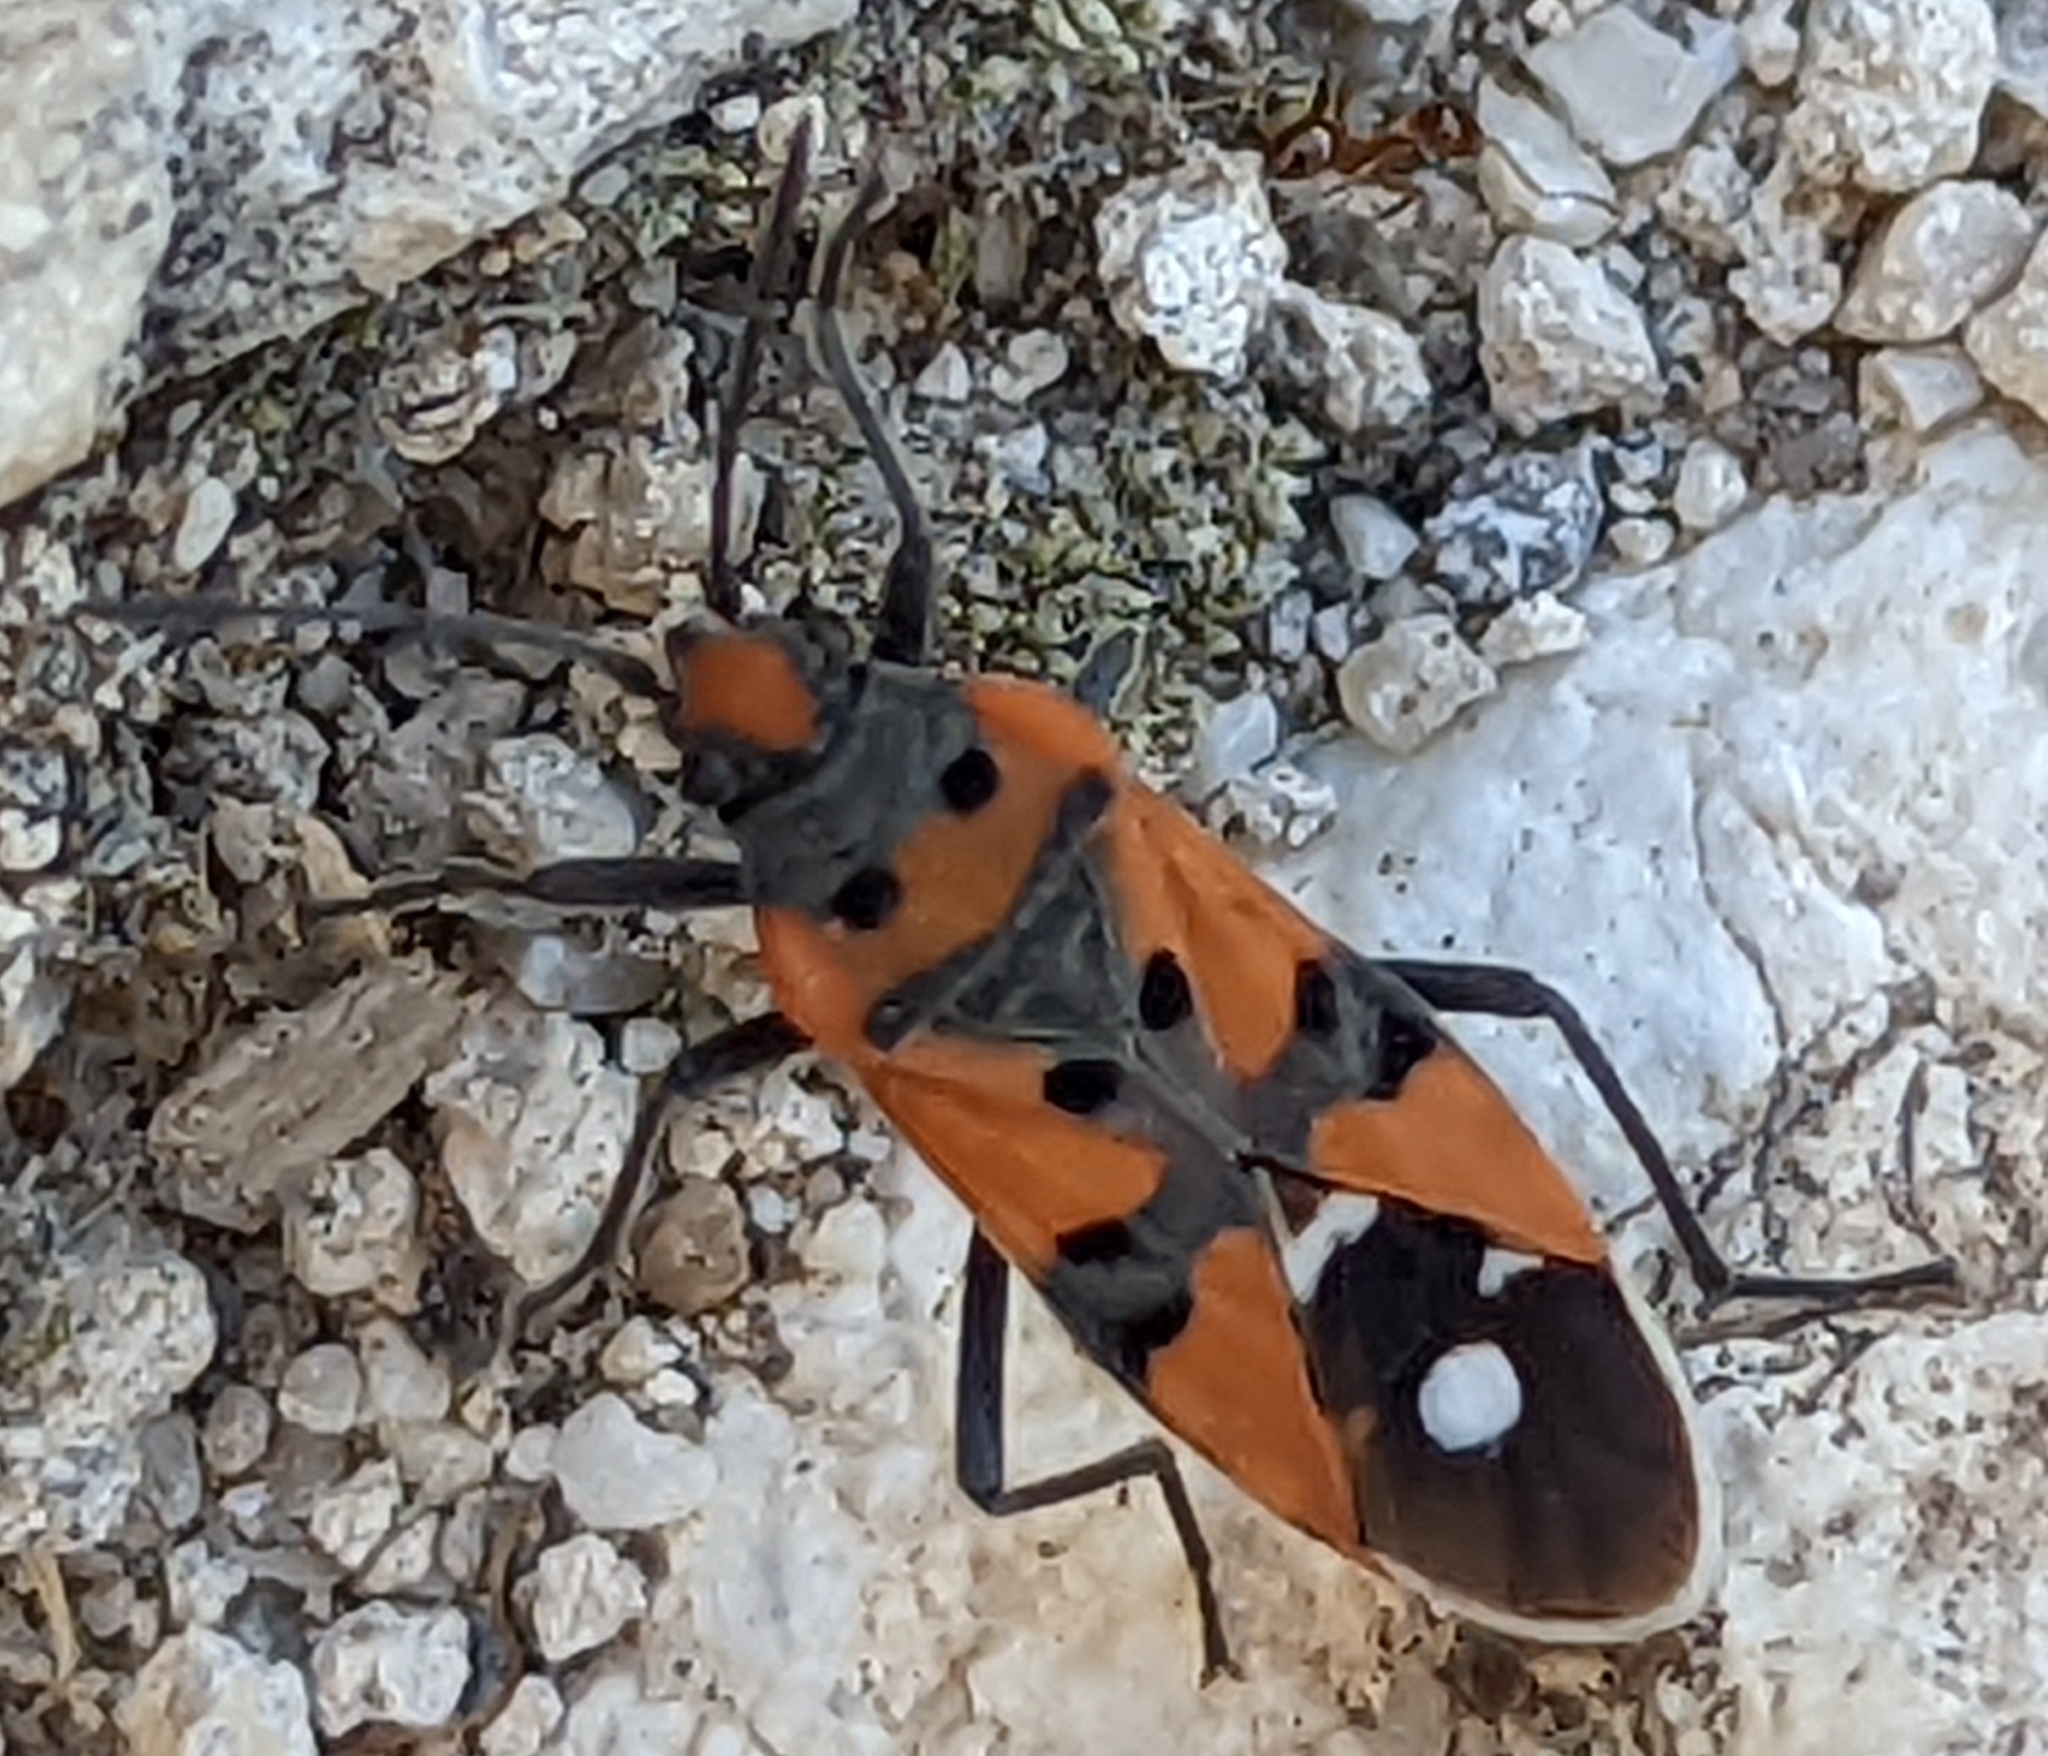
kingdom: Animalia
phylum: Arthropoda
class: Insecta
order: Hemiptera
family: Lygaeidae
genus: Lygaeus
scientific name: Lygaeus
